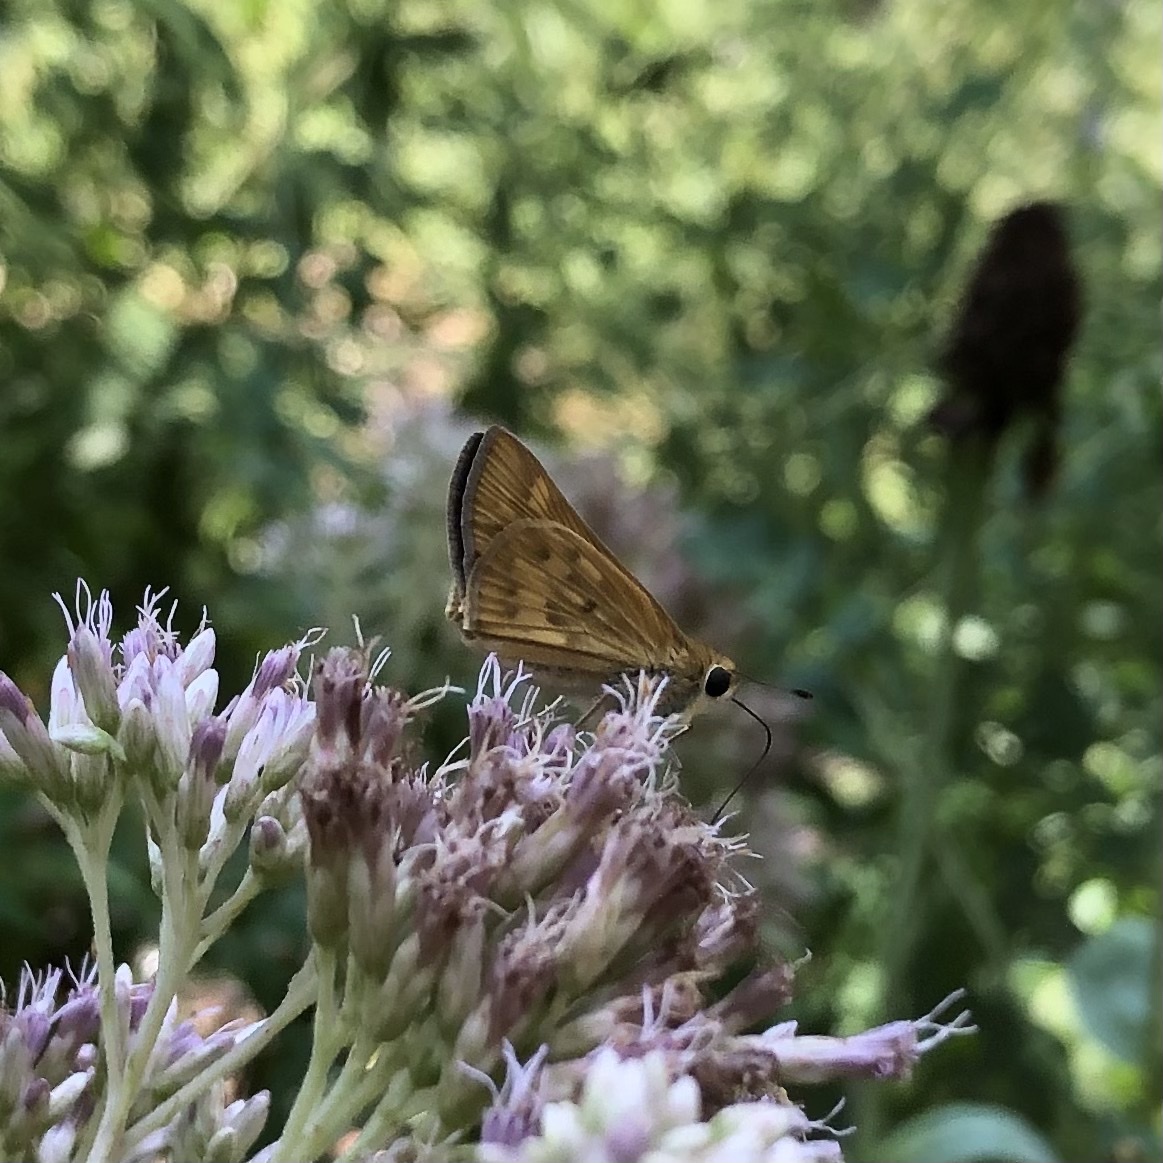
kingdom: Animalia
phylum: Arthropoda
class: Insecta
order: Lepidoptera
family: Hesperiidae
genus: Hylephila
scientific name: Hylephila phyleus
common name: Fiery skipper
